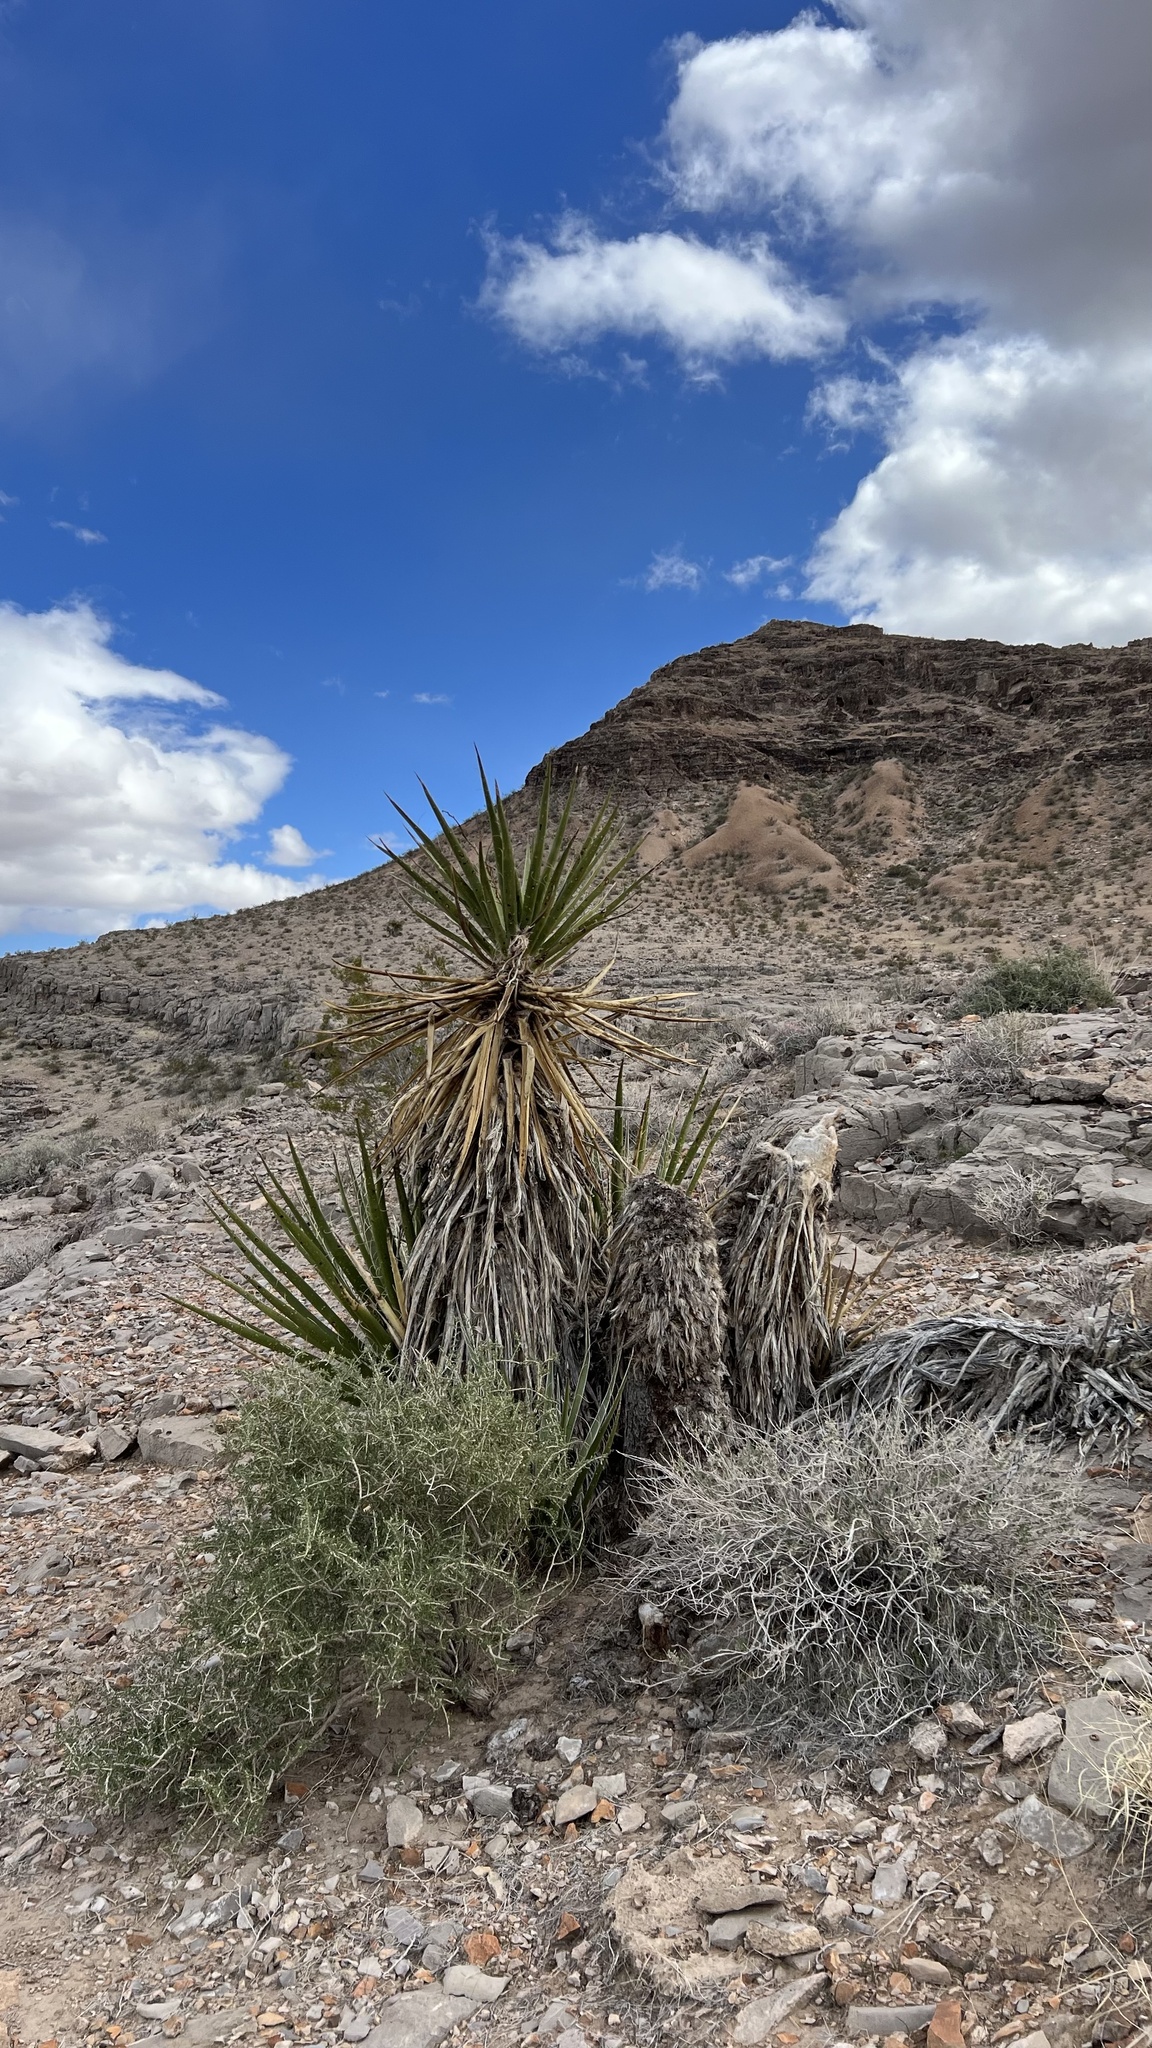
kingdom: Plantae
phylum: Tracheophyta
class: Liliopsida
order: Asparagales
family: Asparagaceae
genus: Yucca
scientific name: Yucca schidigera
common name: Mojave yucca
